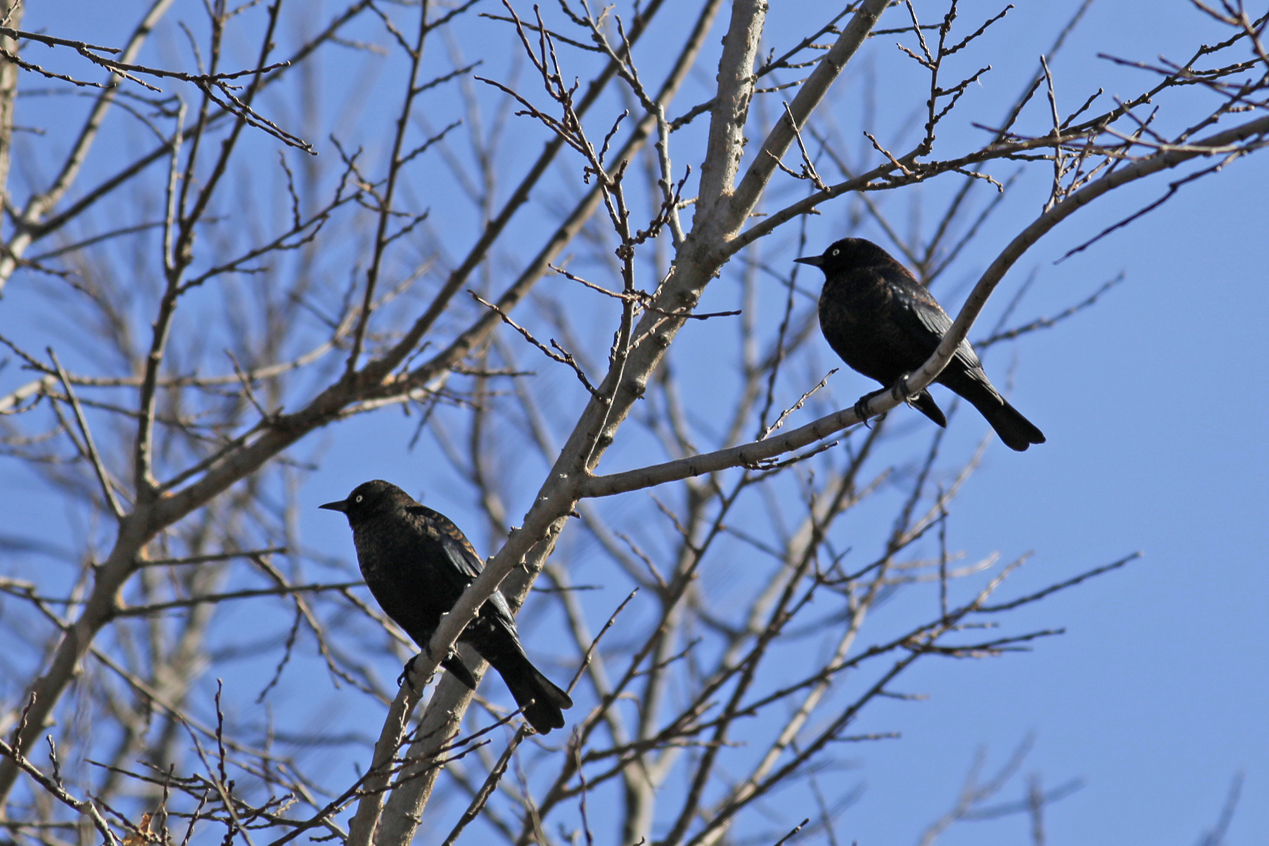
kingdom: Animalia
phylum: Chordata
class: Aves
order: Passeriformes
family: Icteridae
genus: Euphagus
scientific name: Euphagus carolinus
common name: Rusty blackbird
